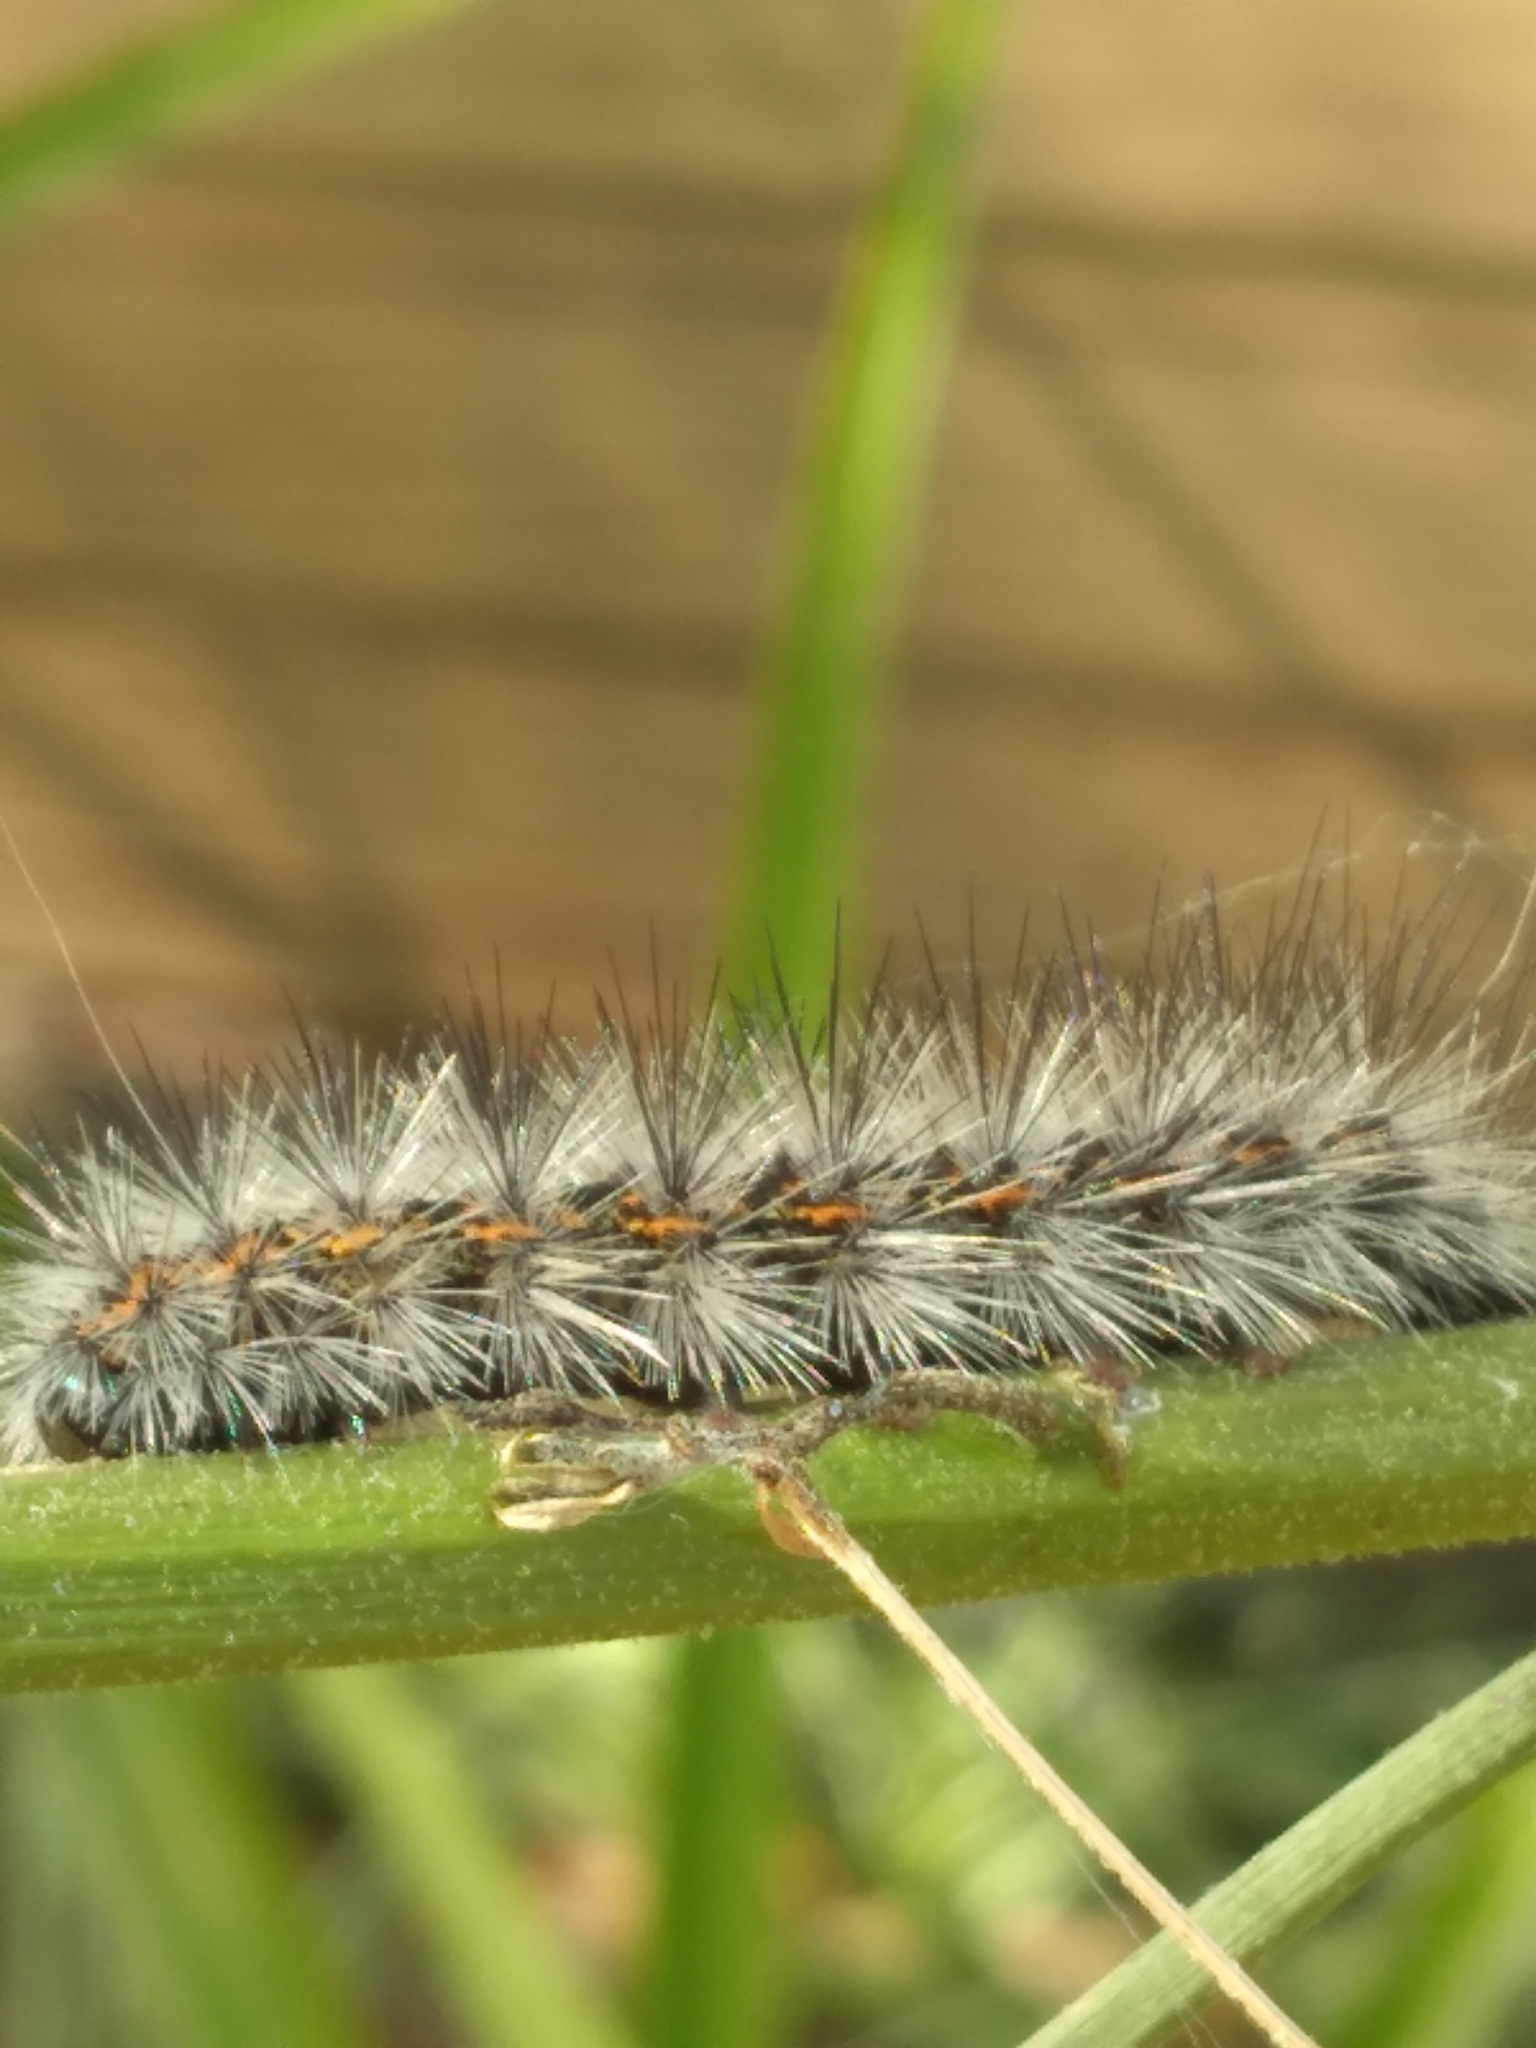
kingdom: Animalia
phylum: Arthropoda
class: Insecta
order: Lepidoptera
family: Erebidae
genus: Spilosoma
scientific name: Spilosoma dubia
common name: Dubious tiger moth
